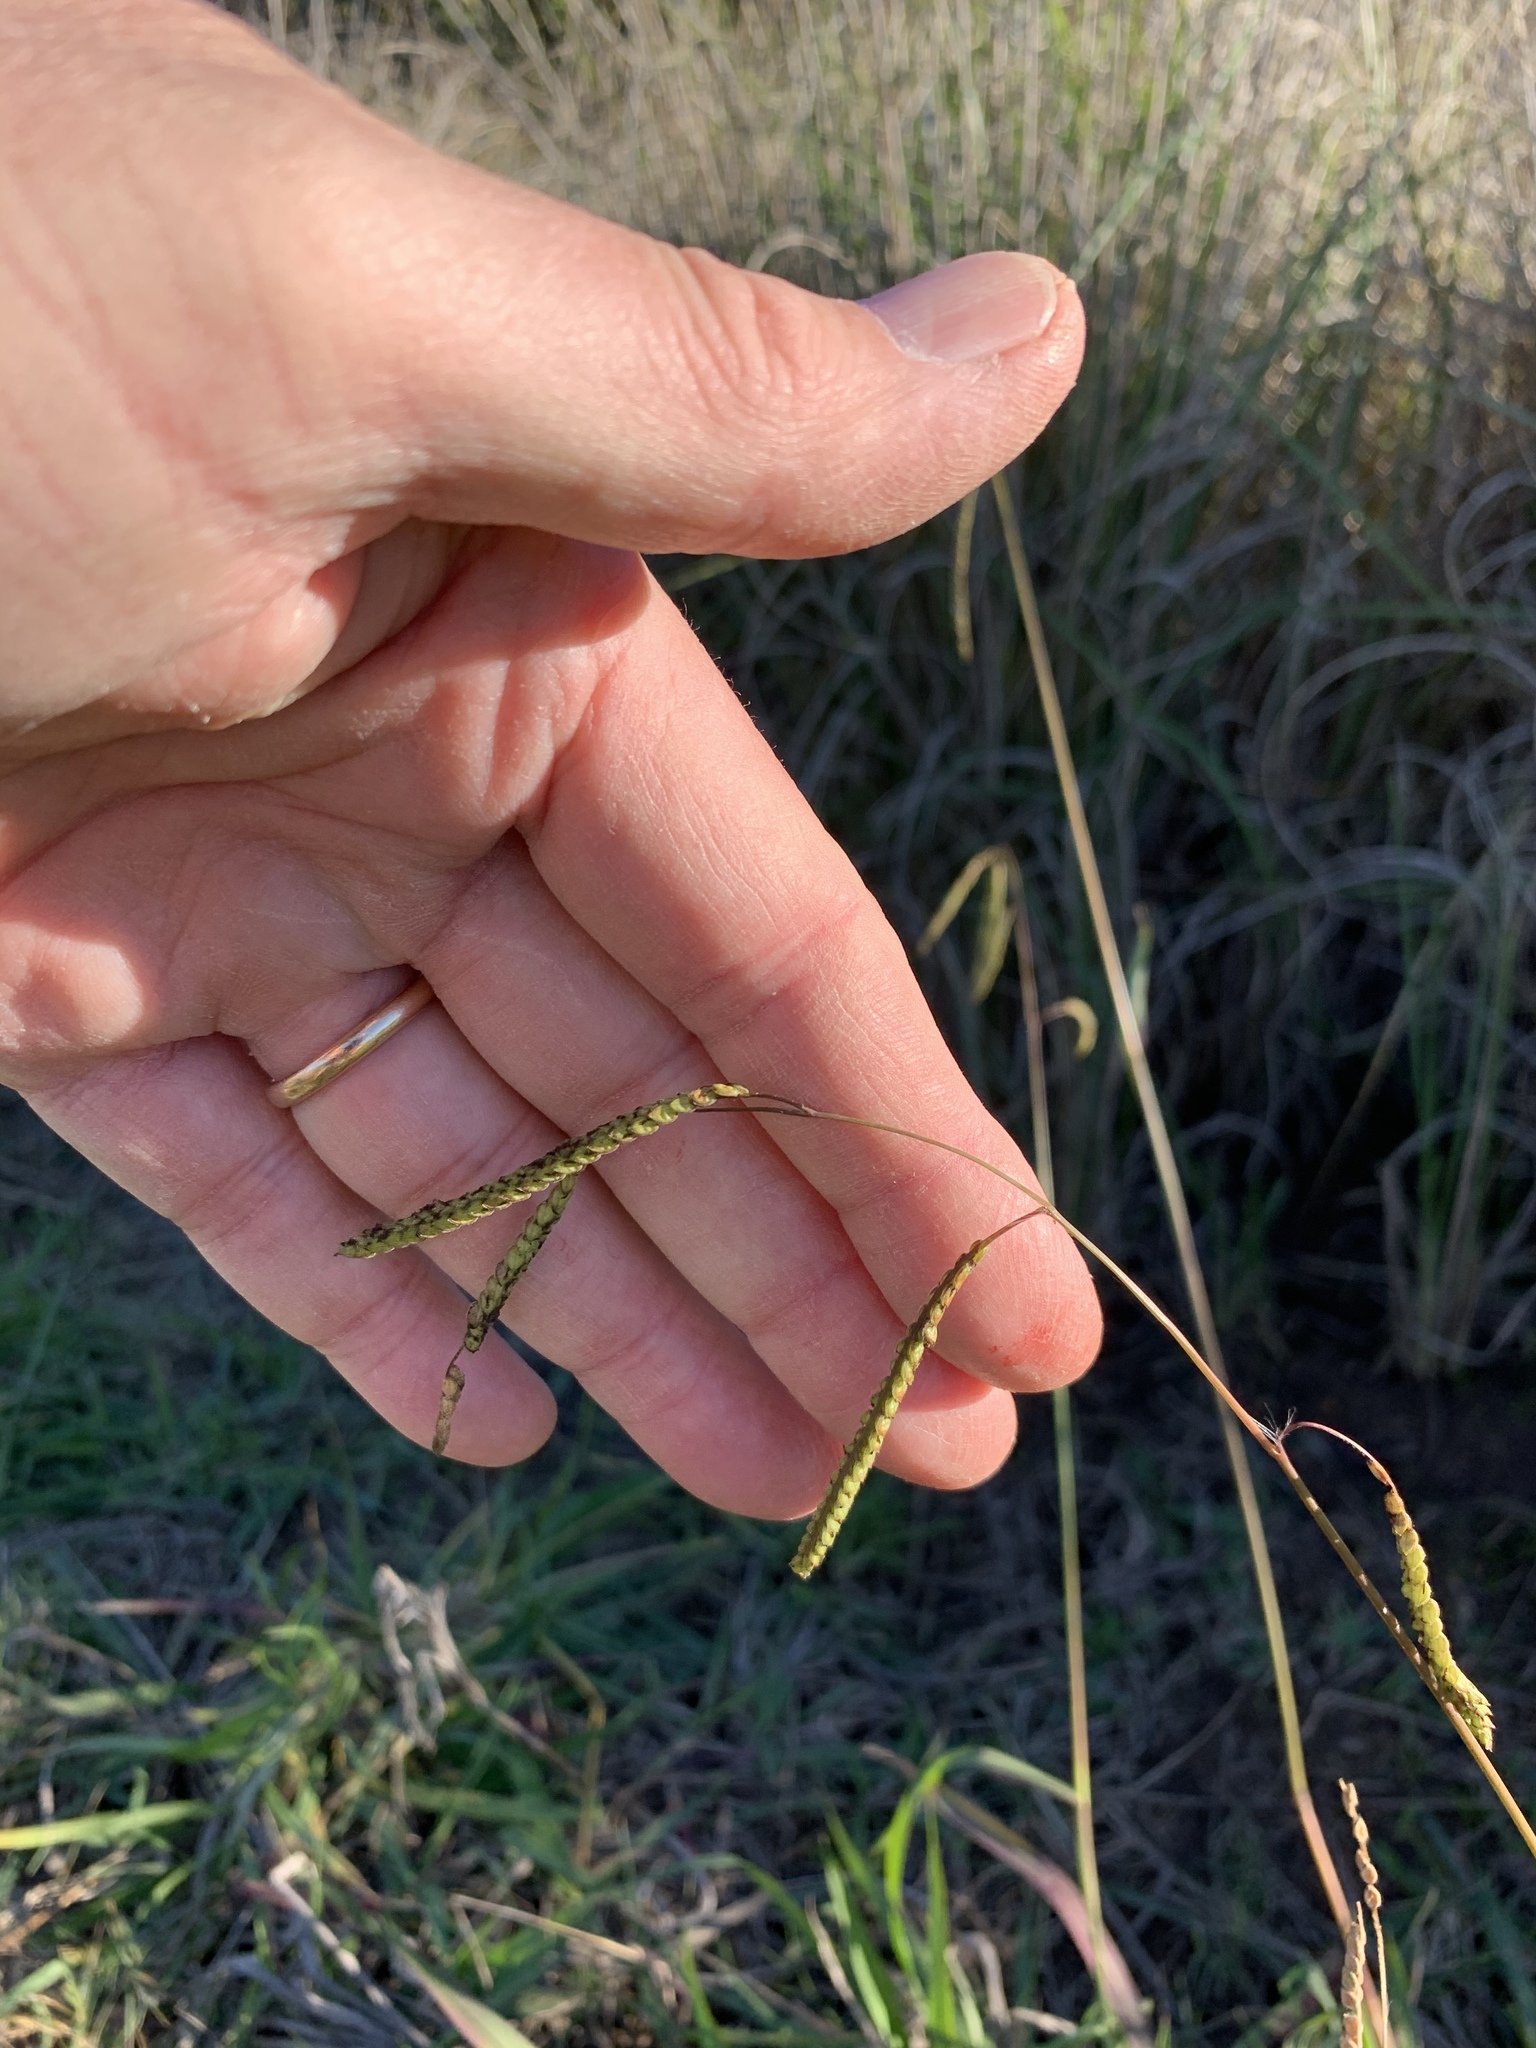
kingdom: Plantae
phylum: Tracheophyta
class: Liliopsida
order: Poales
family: Poaceae
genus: Paspalum
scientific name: Paspalum dilatatum
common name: Dallisgrass
